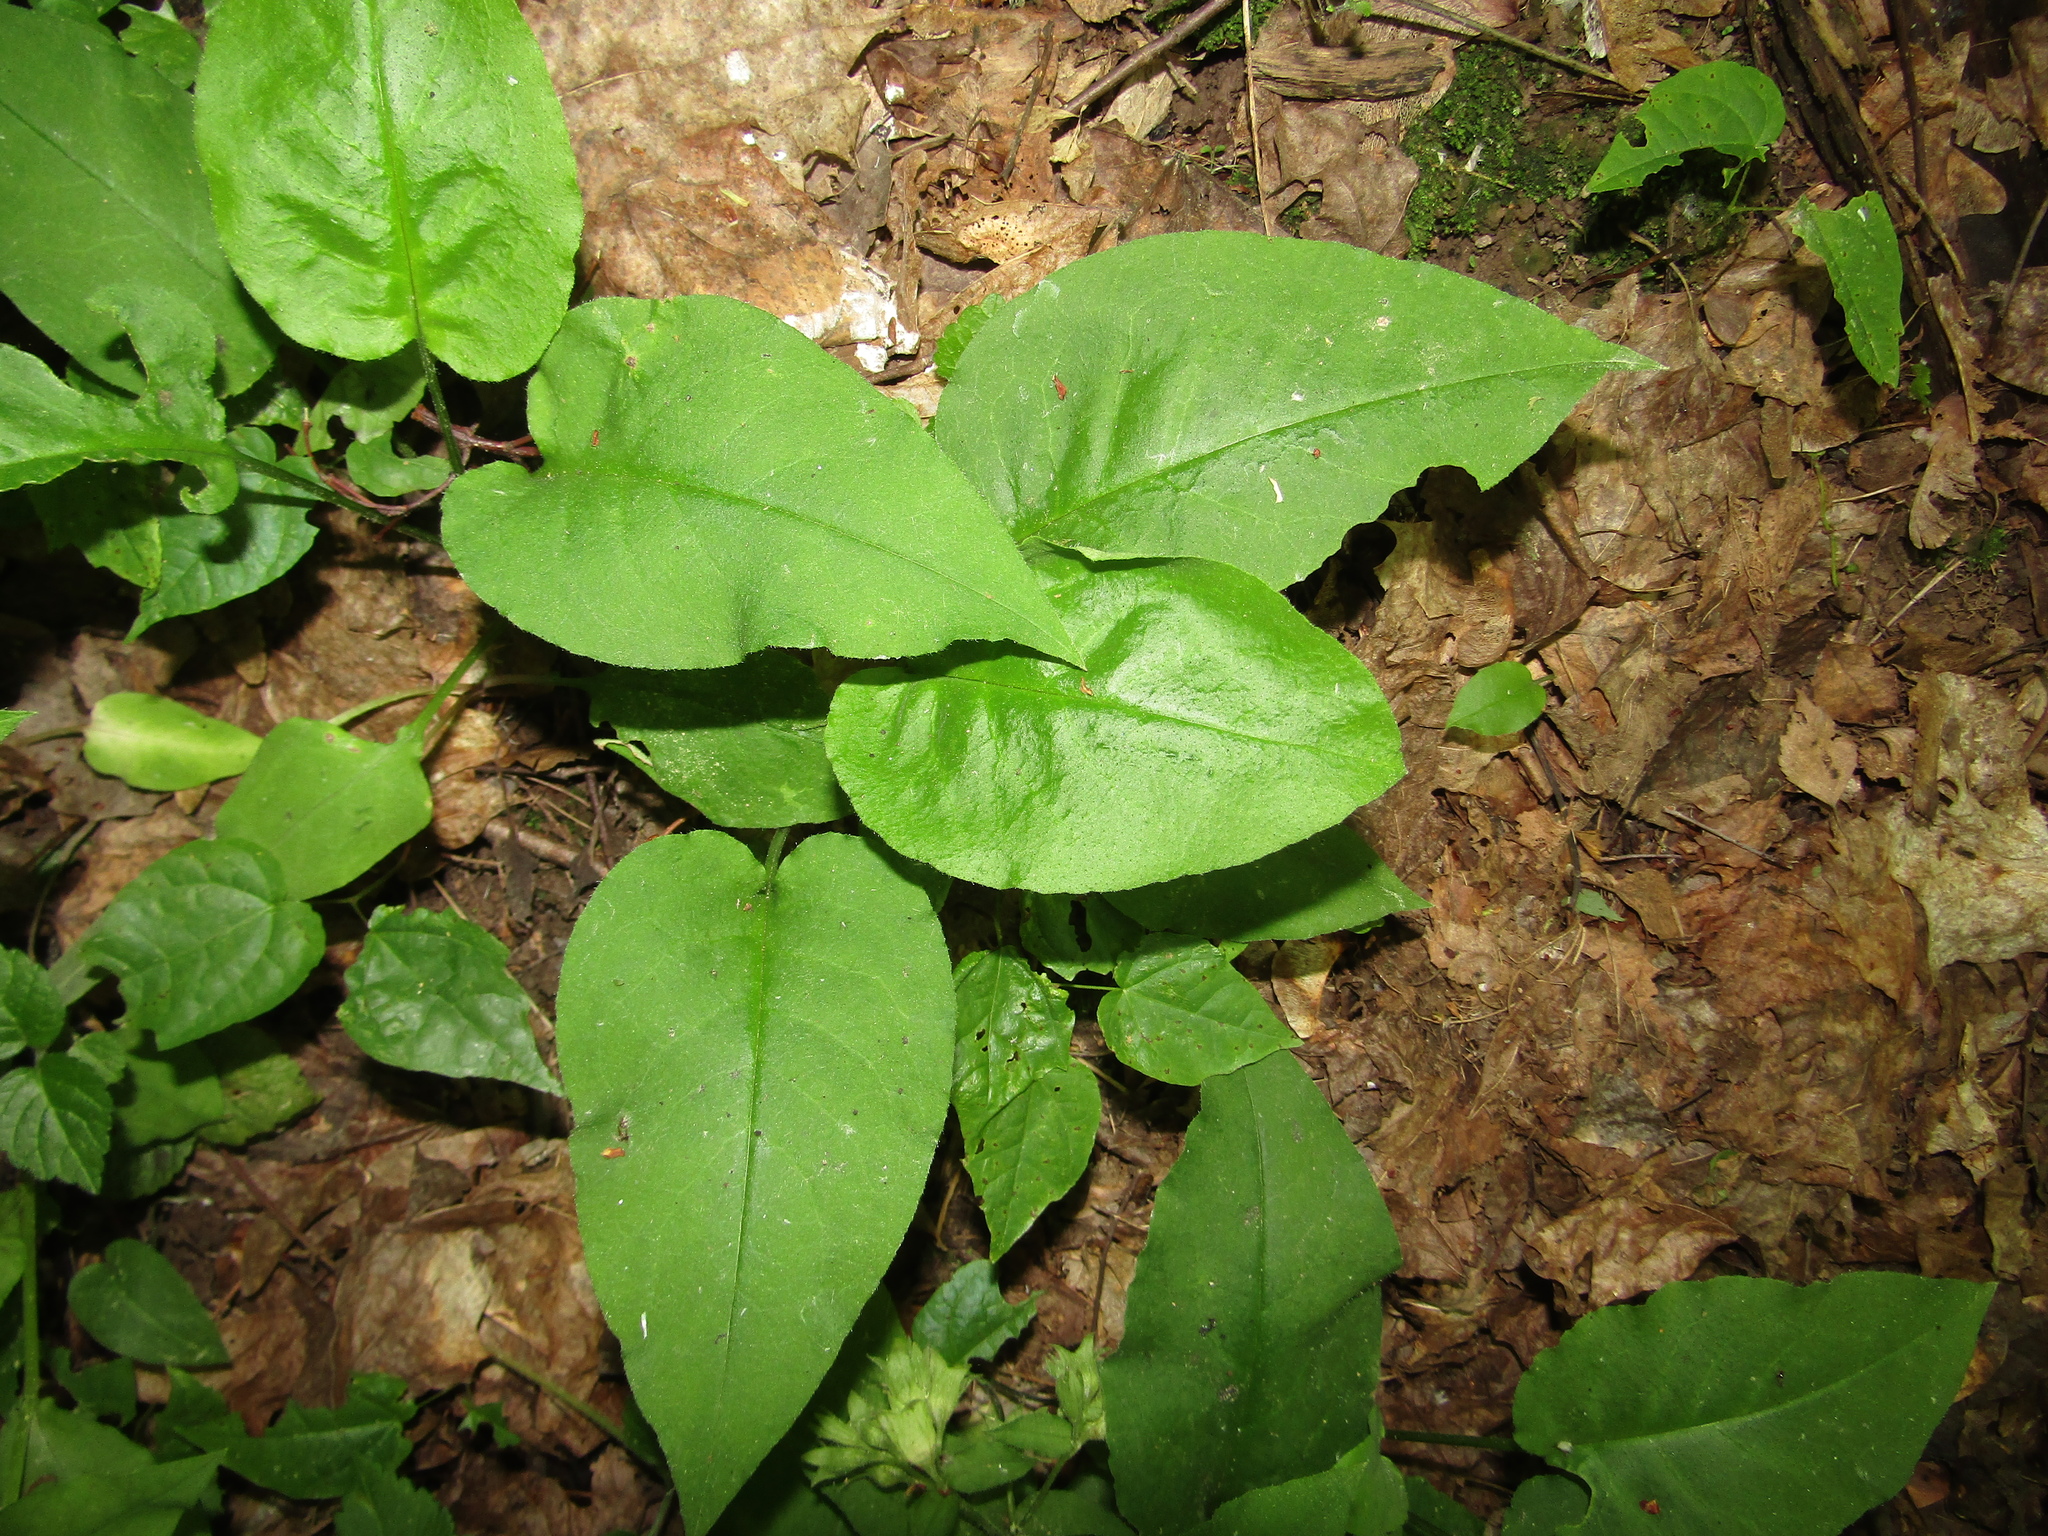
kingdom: Plantae
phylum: Tracheophyta
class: Magnoliopsida
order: Boraginales
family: Boraginaceae
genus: Pulmonaria
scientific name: Pulmonaria obscura
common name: Suffolk lungwort
